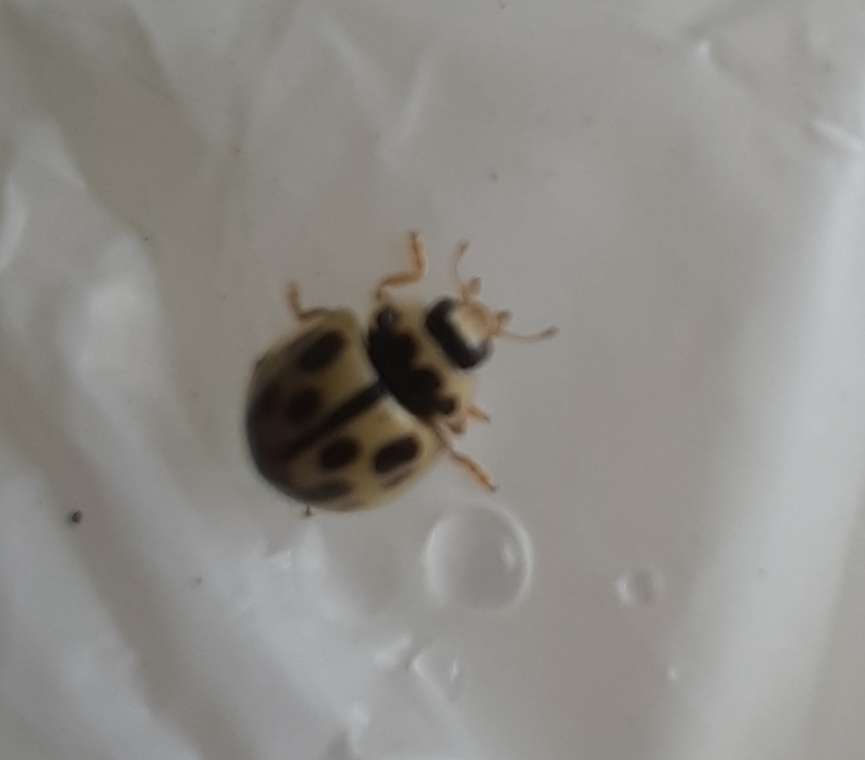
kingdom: Animalia
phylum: Arthropoda
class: Insecta
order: Coleoptera
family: Coccinellidae
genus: Propylaea
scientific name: Propylaea quatuordecimpunctata
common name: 14-spotted ladybird beetle
